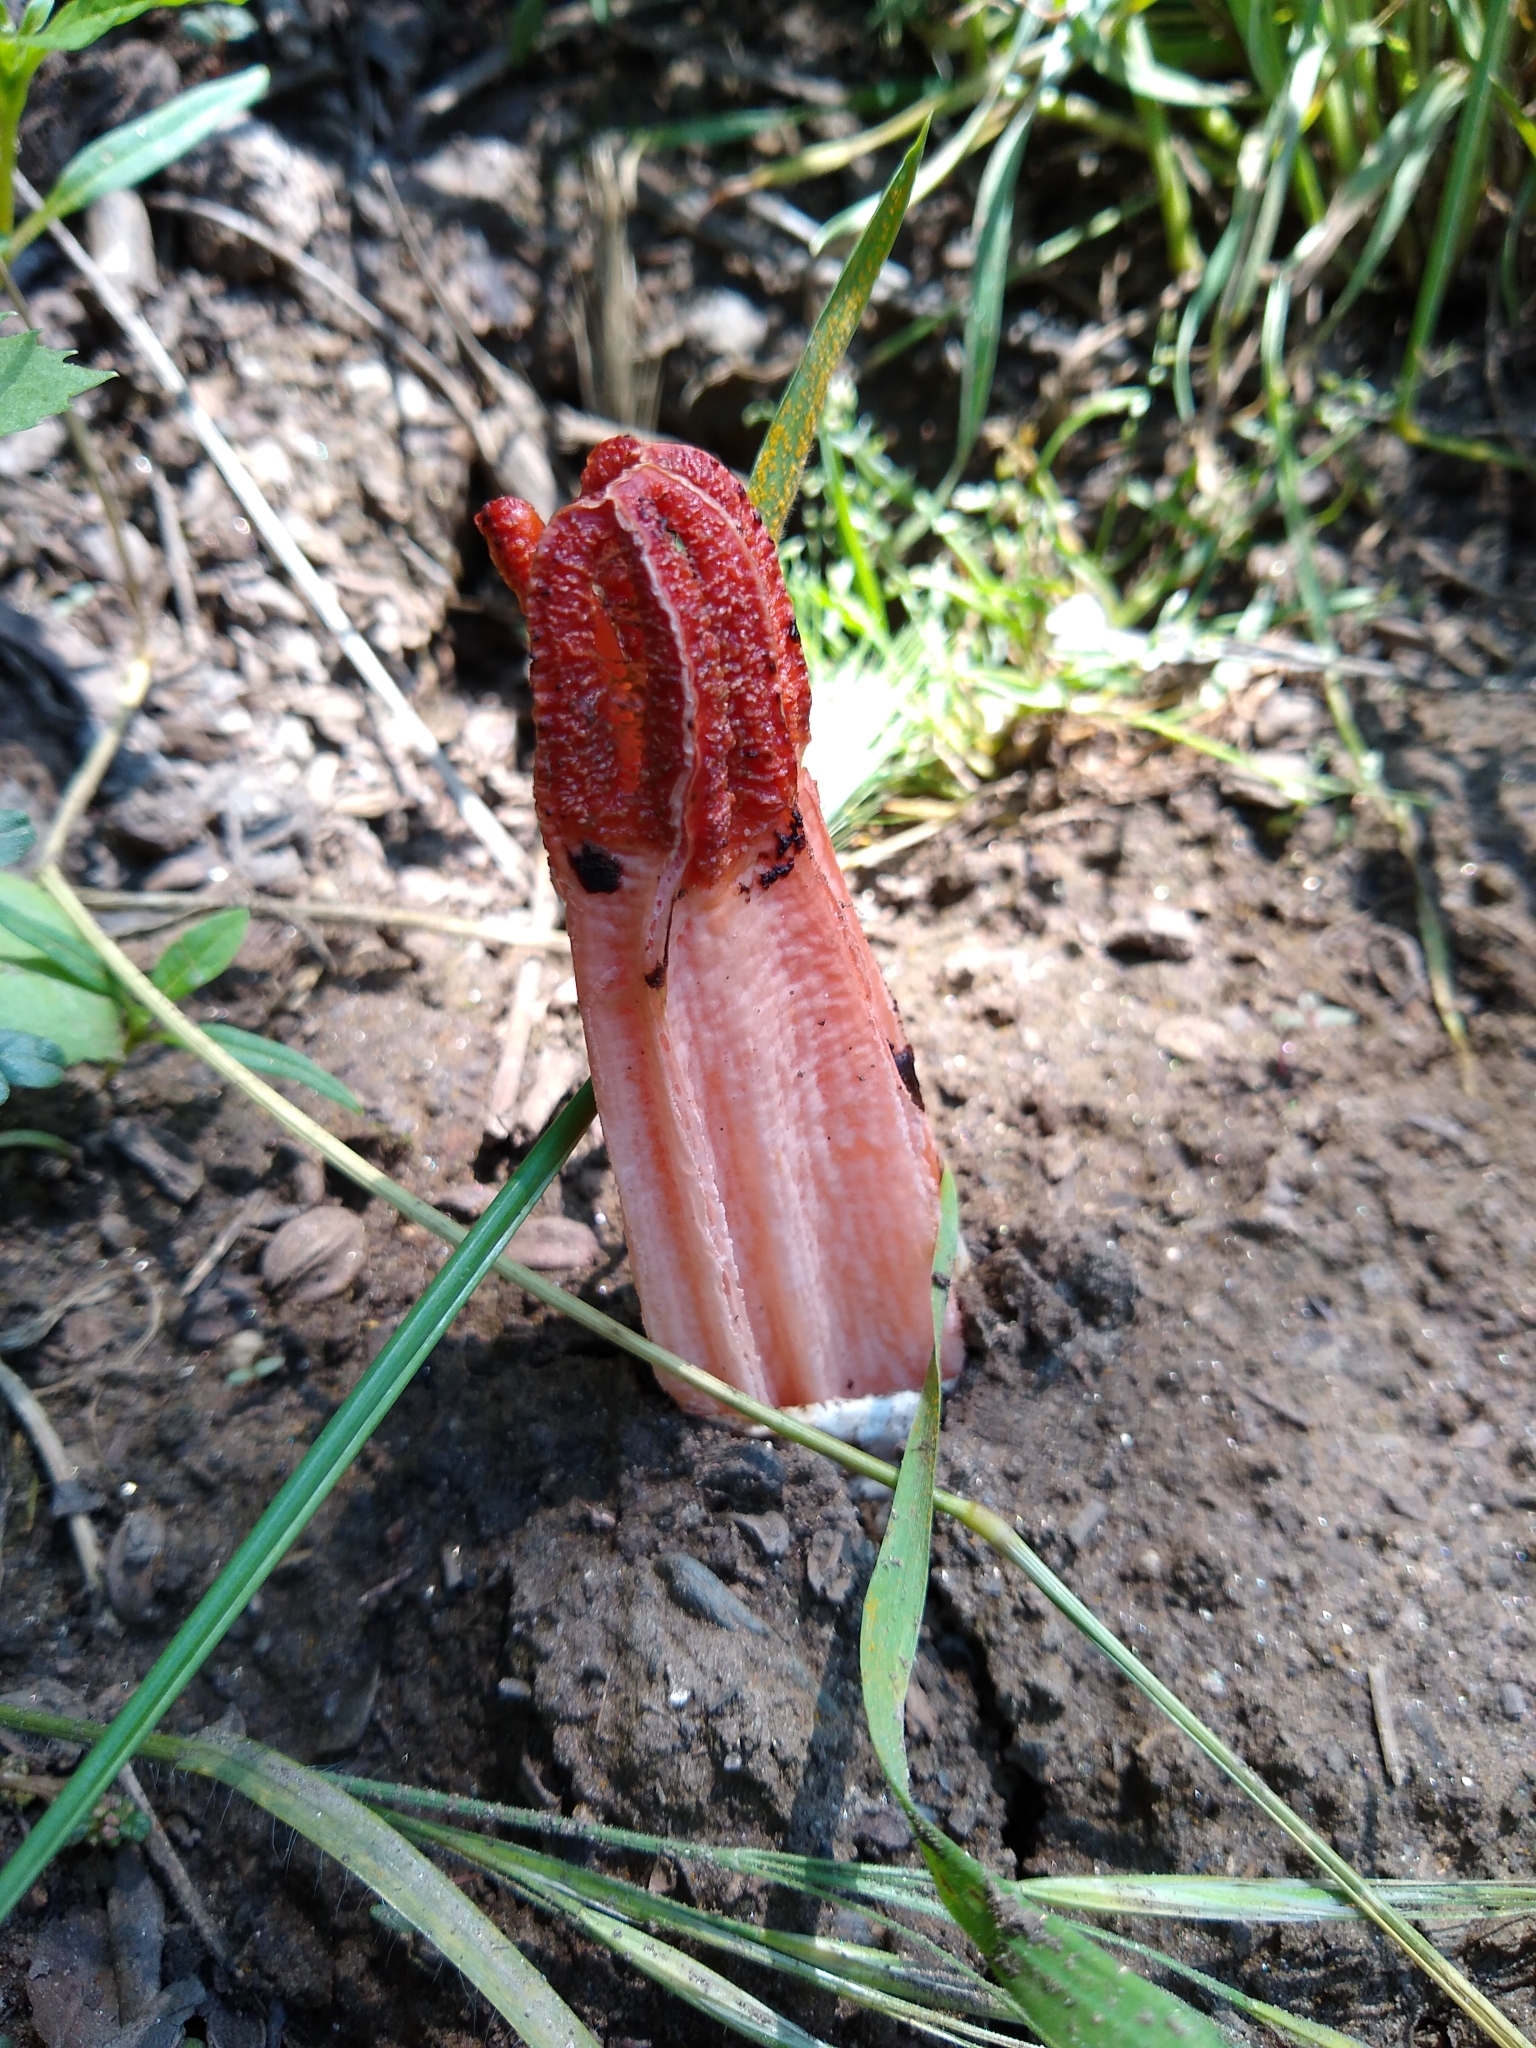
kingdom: Fungi
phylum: Basidiomycota
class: Agaricomycetes
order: Phallales
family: Phallaceae
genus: Lysurus
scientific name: Lysurus mokusin
